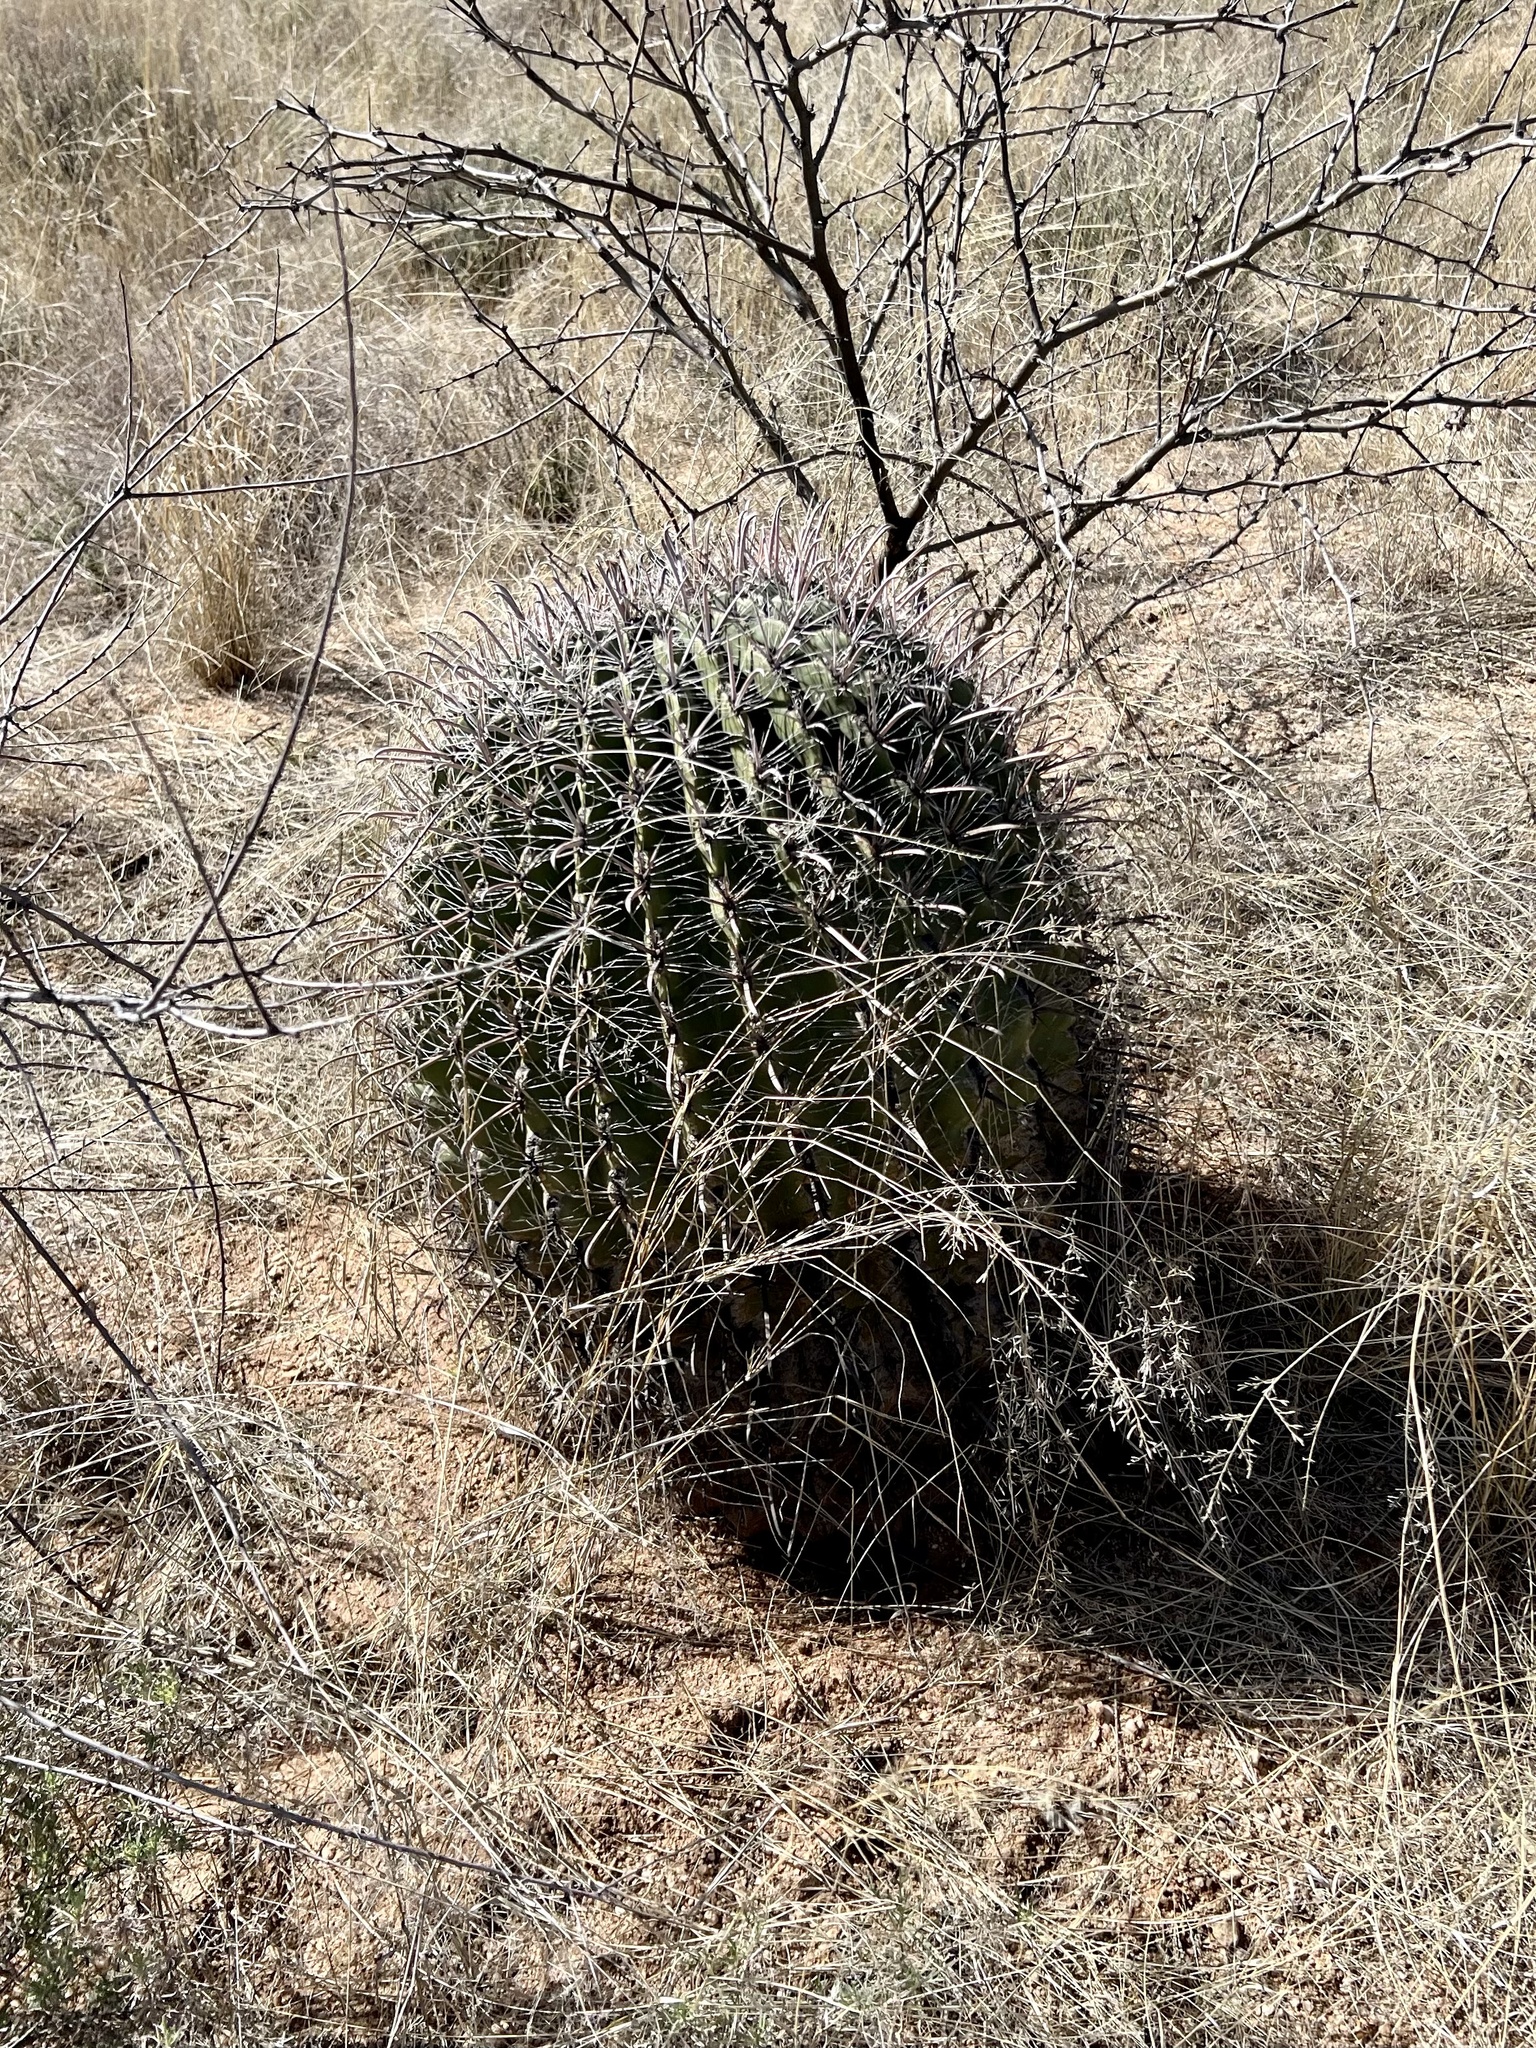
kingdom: Plantae
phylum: Tracheophyta
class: Magnoliopsida
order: Caryophyllales
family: Cactaceae
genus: Ferocactus
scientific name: Ferocactus wislizeni
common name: Candy barrel cactus
